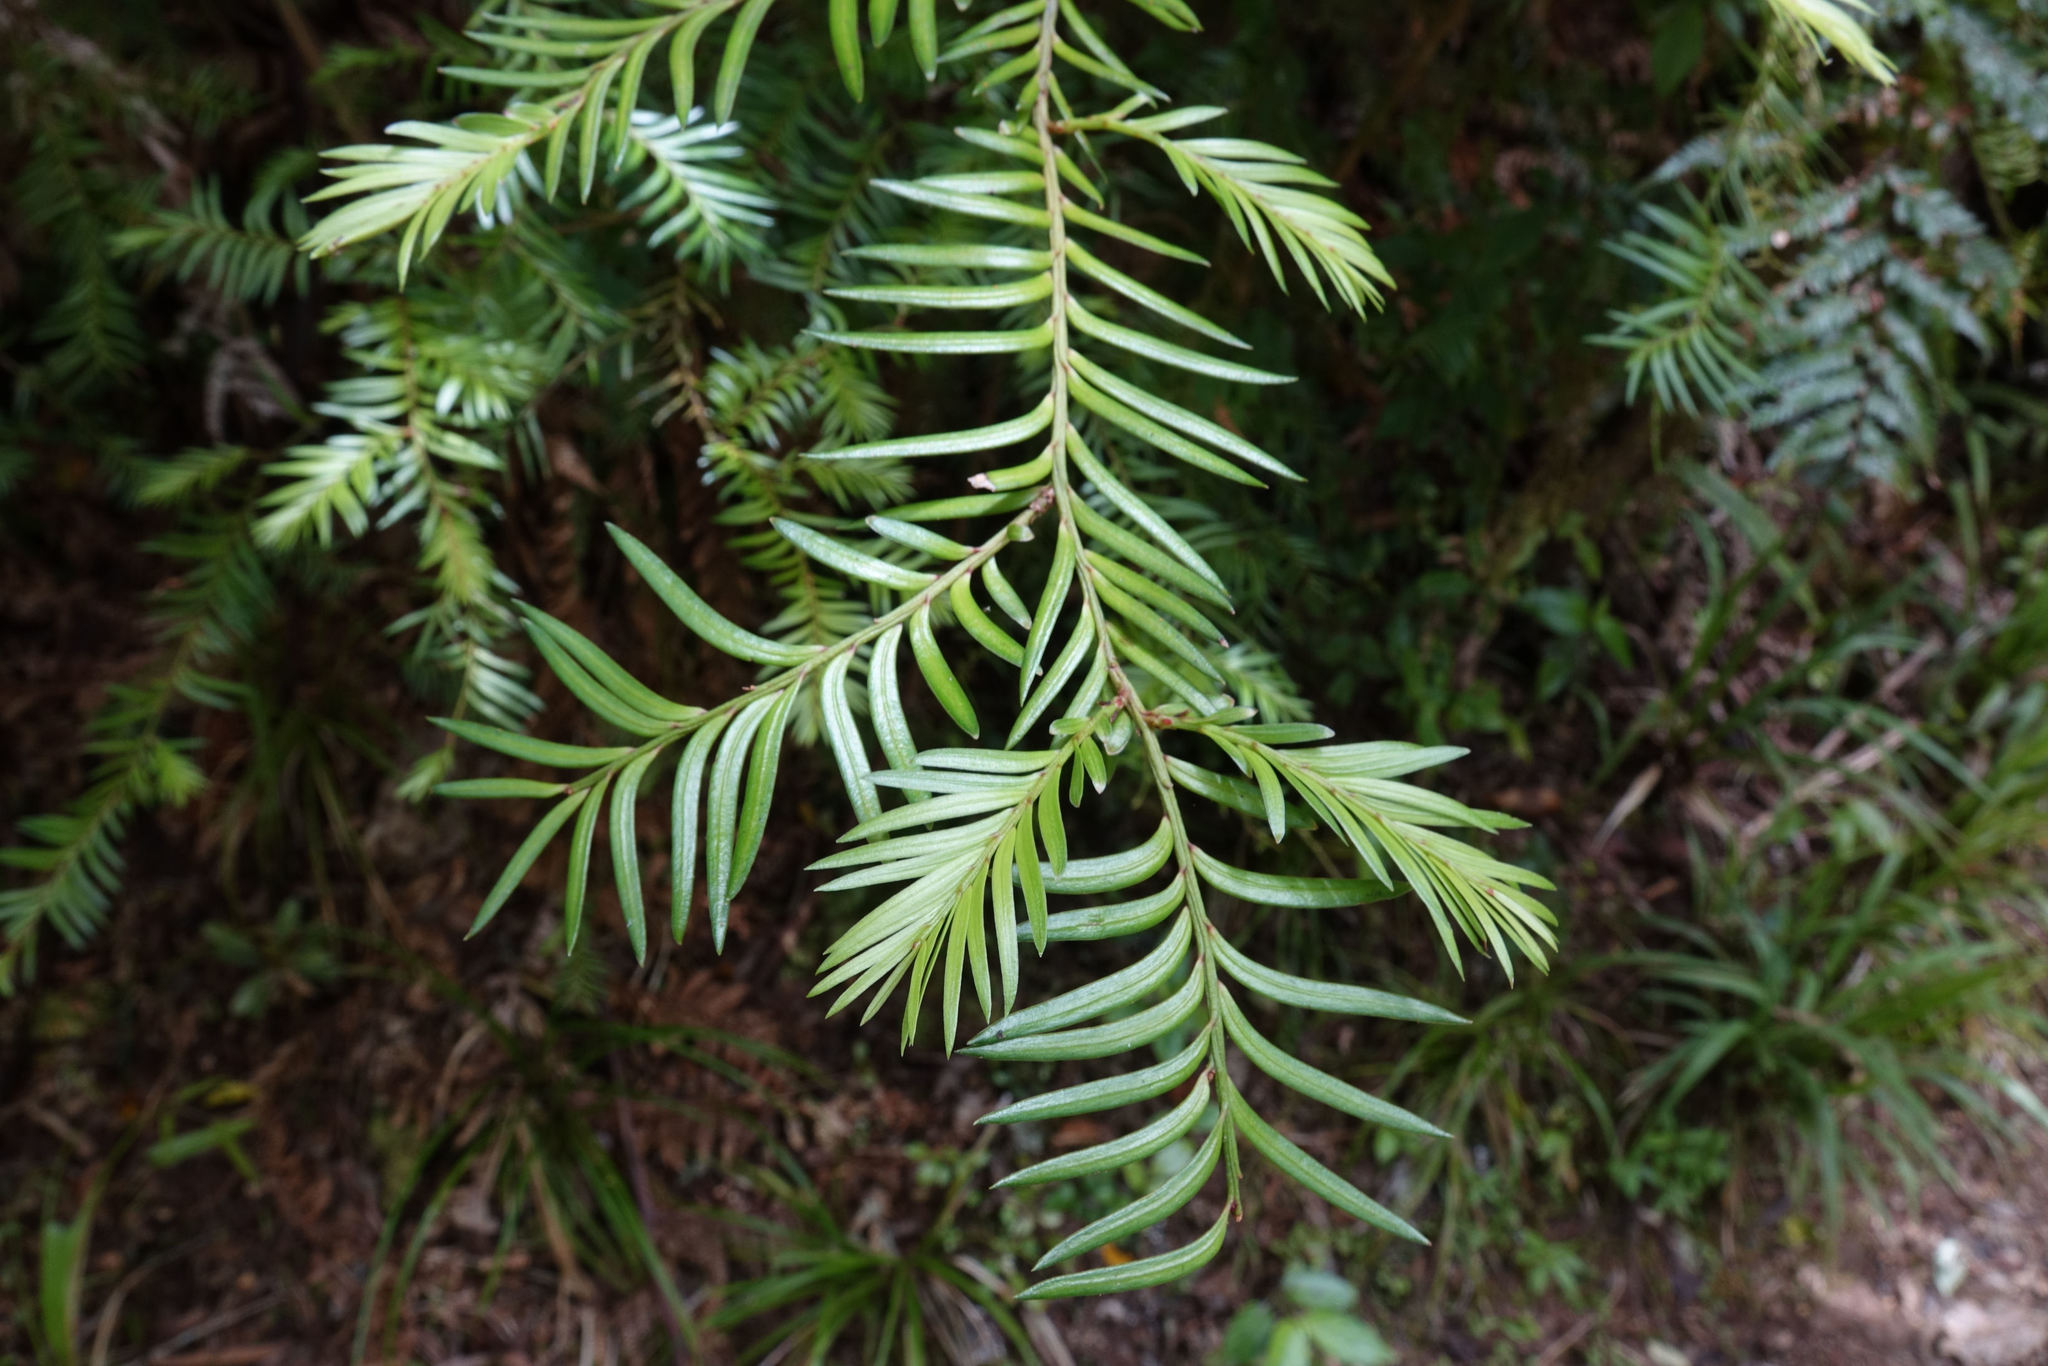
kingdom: Plantae
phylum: Tracheophyta
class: Pinopsida
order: Pinales
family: Podocarpaceae
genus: Prumnopitys
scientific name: Prumnopitys ferruginea
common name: Brown pine
